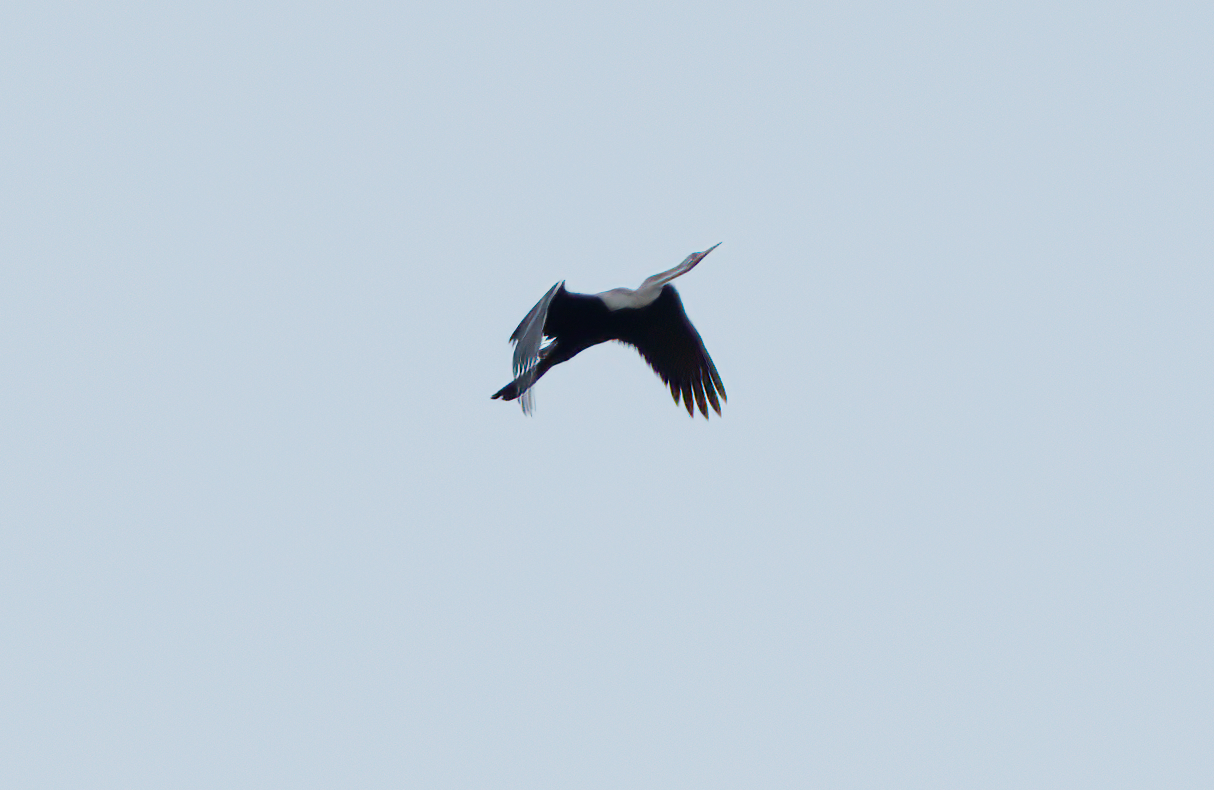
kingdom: Animalia
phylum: Chordata
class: Aves
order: Suliformes
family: Anhingidae
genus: Anhinga
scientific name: Anhinga melanogaster
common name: Oriental darter
